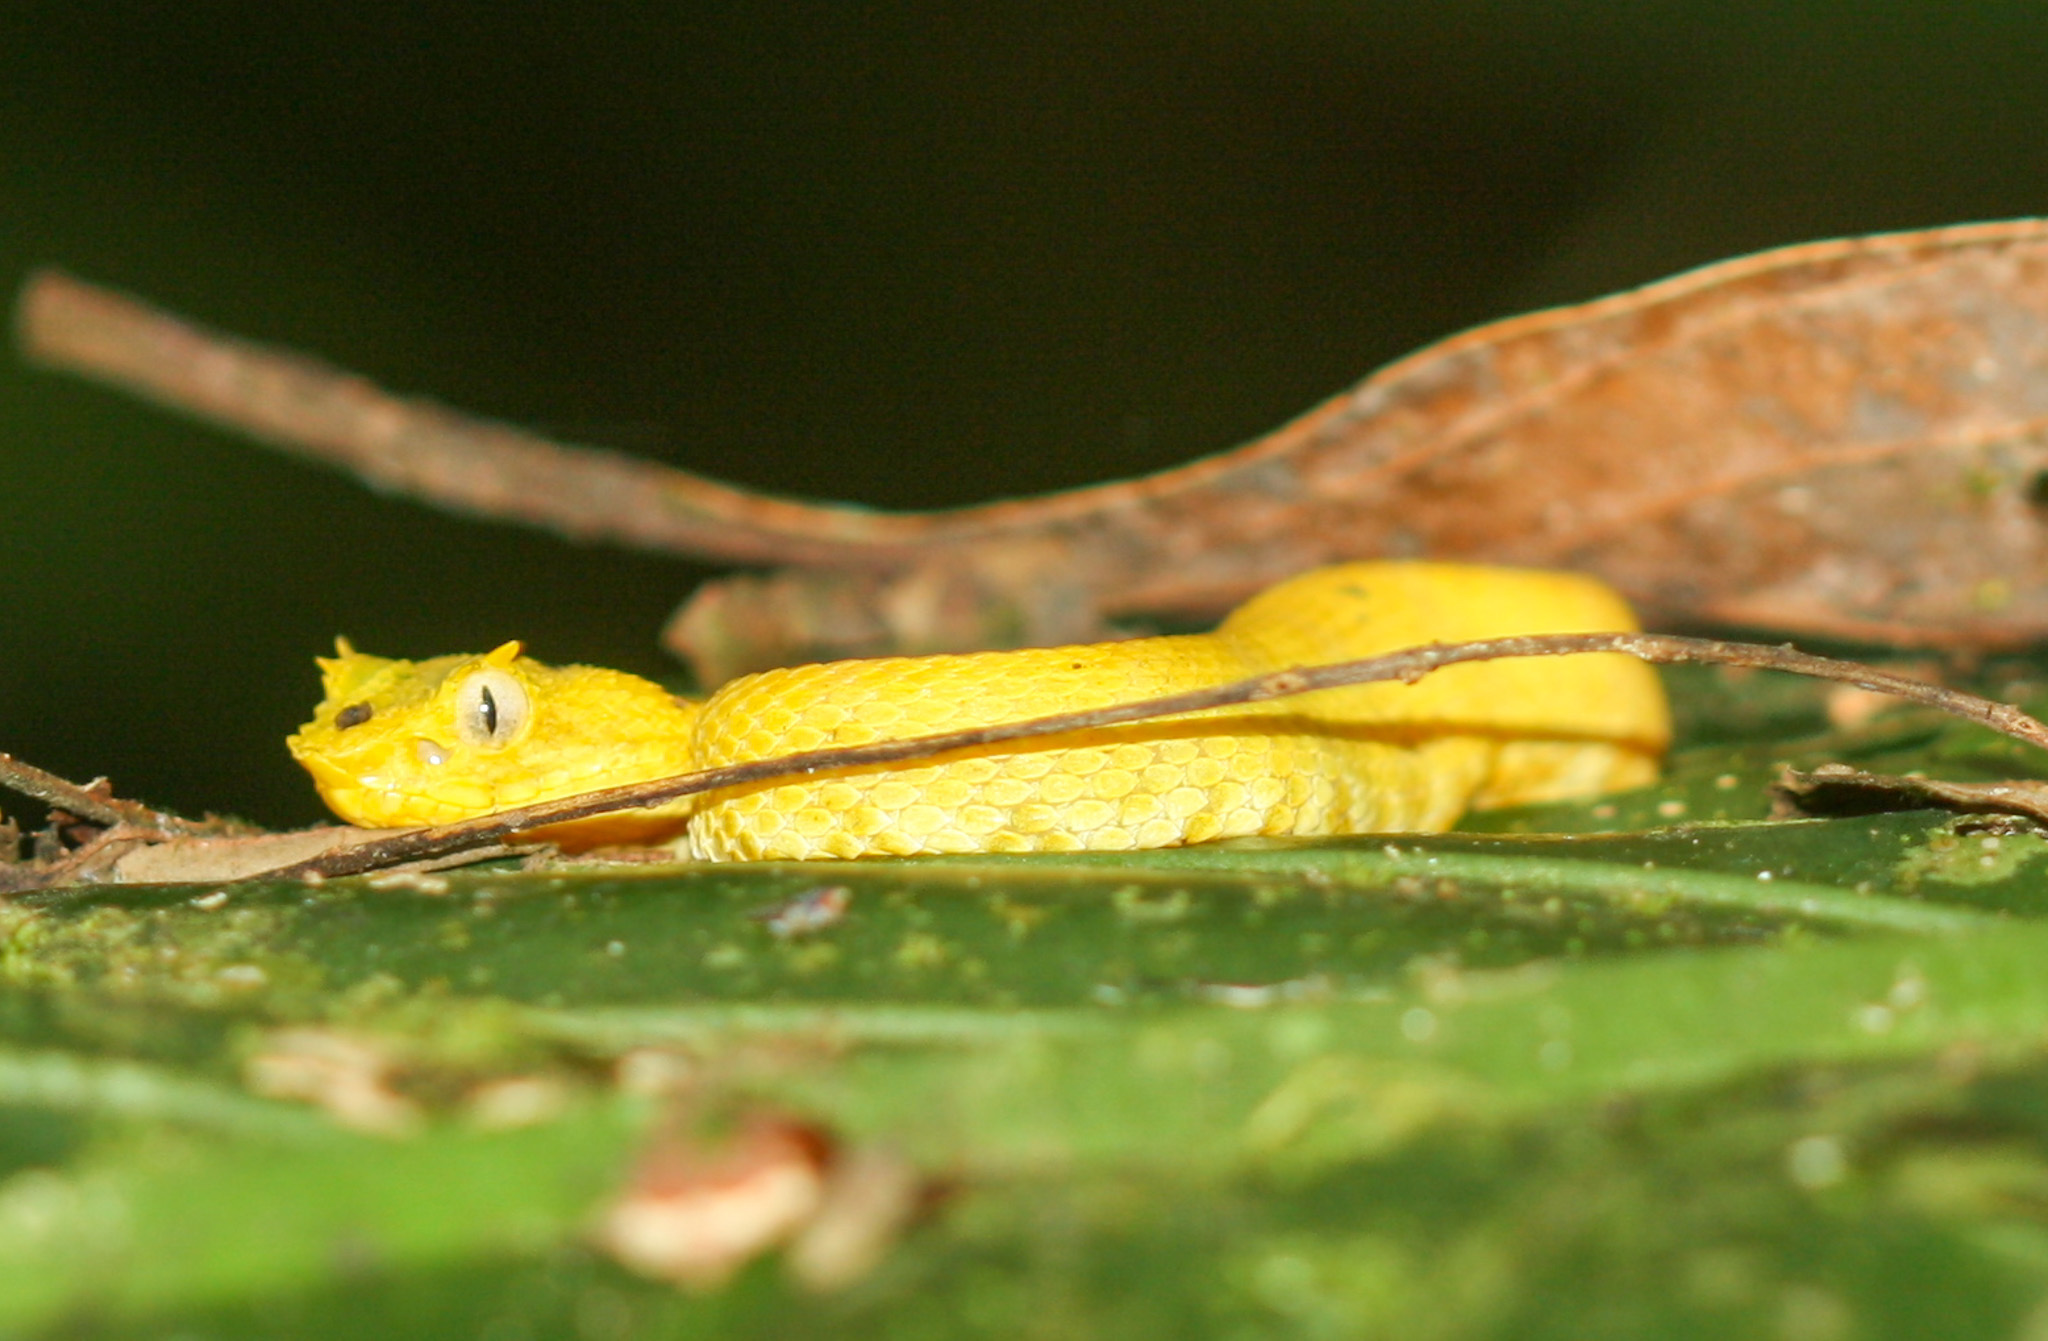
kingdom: Animalia
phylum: Chordata
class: Squamata
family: Viperidae
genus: Bothriechis
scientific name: Bothriechis schlegelii
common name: Eyelash viper
